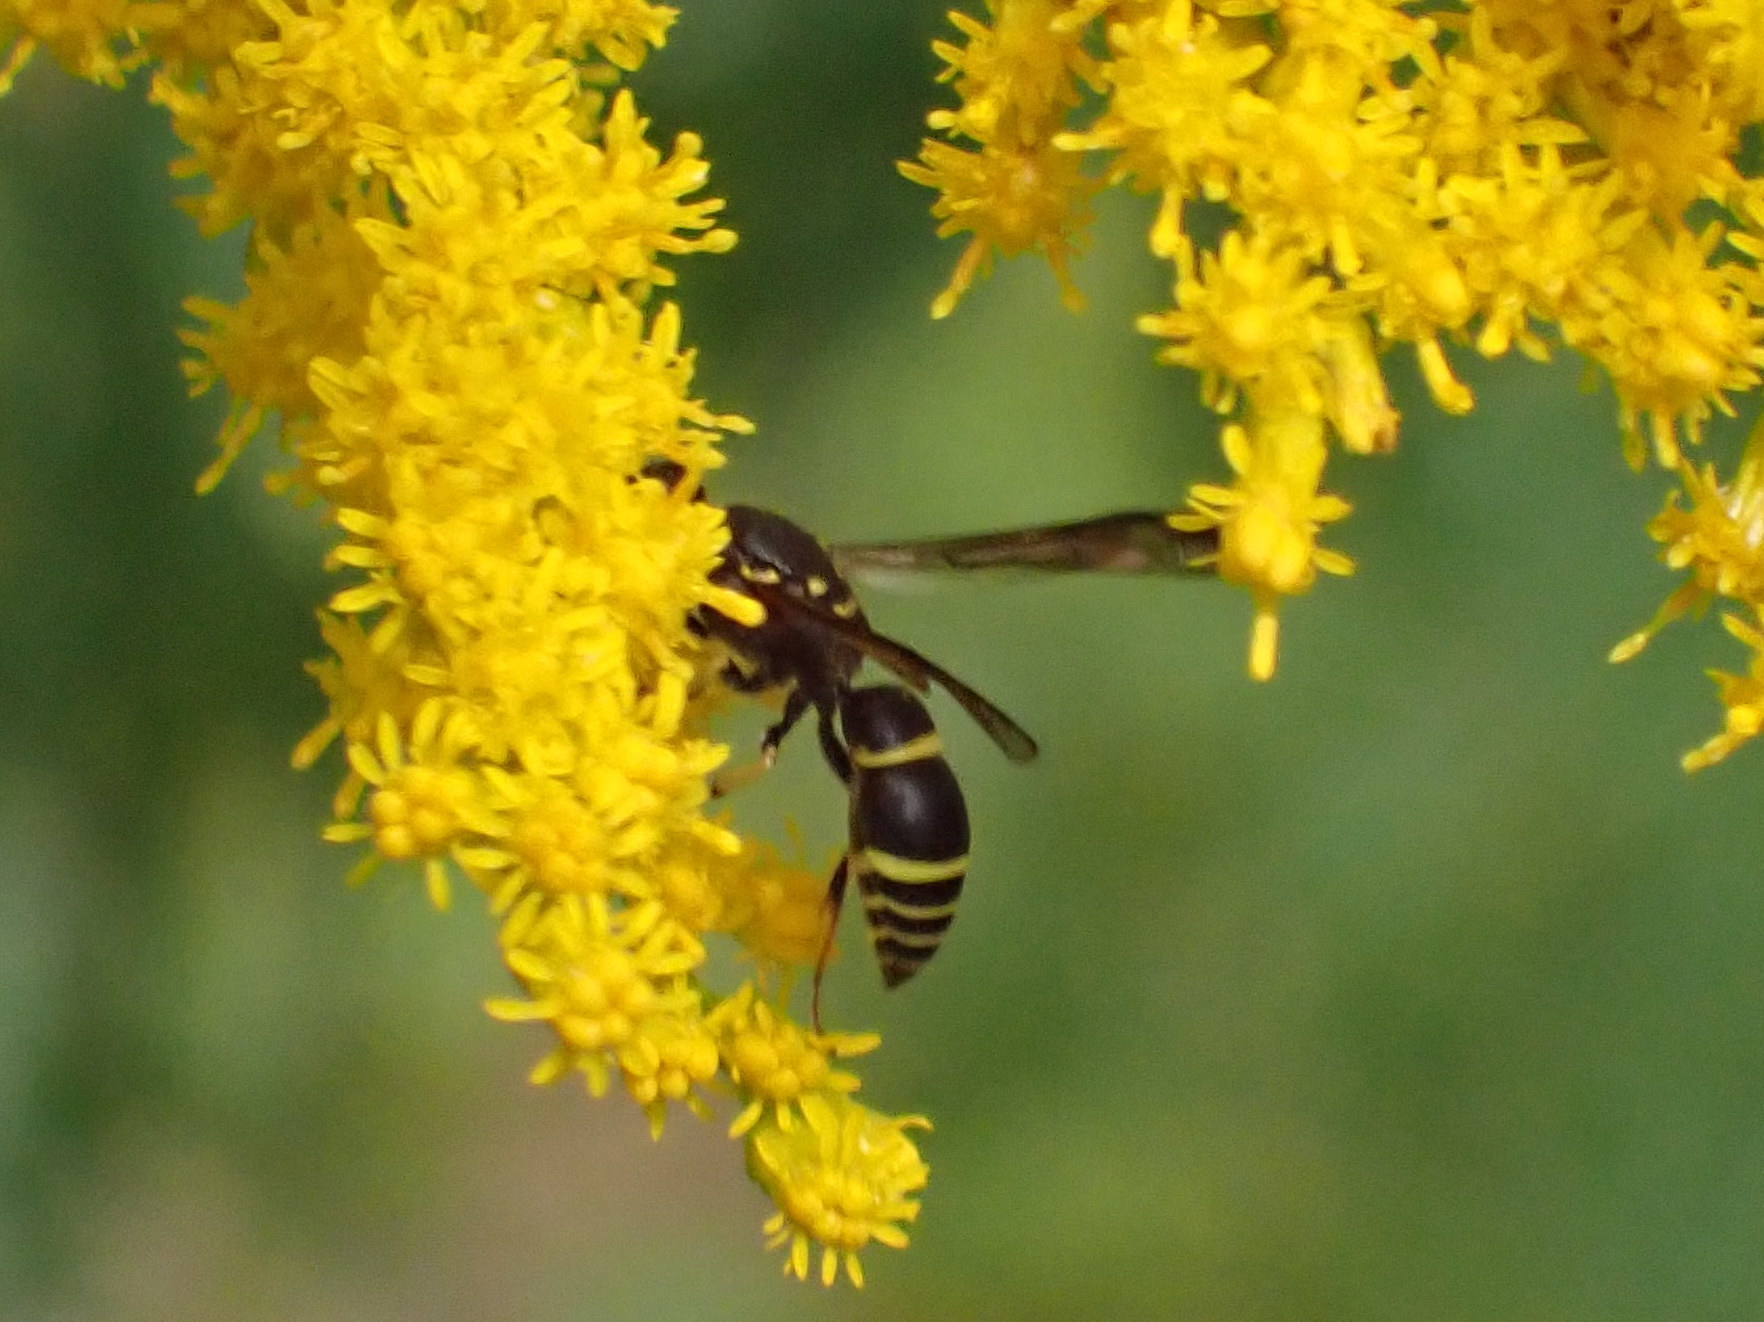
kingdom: Animalia
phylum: Arthropoda
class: Insecta
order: Hymenoptera
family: Vespidae
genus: Ancistrocerus
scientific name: Ancistrocerus adiabatus
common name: Bramble mason wasp
